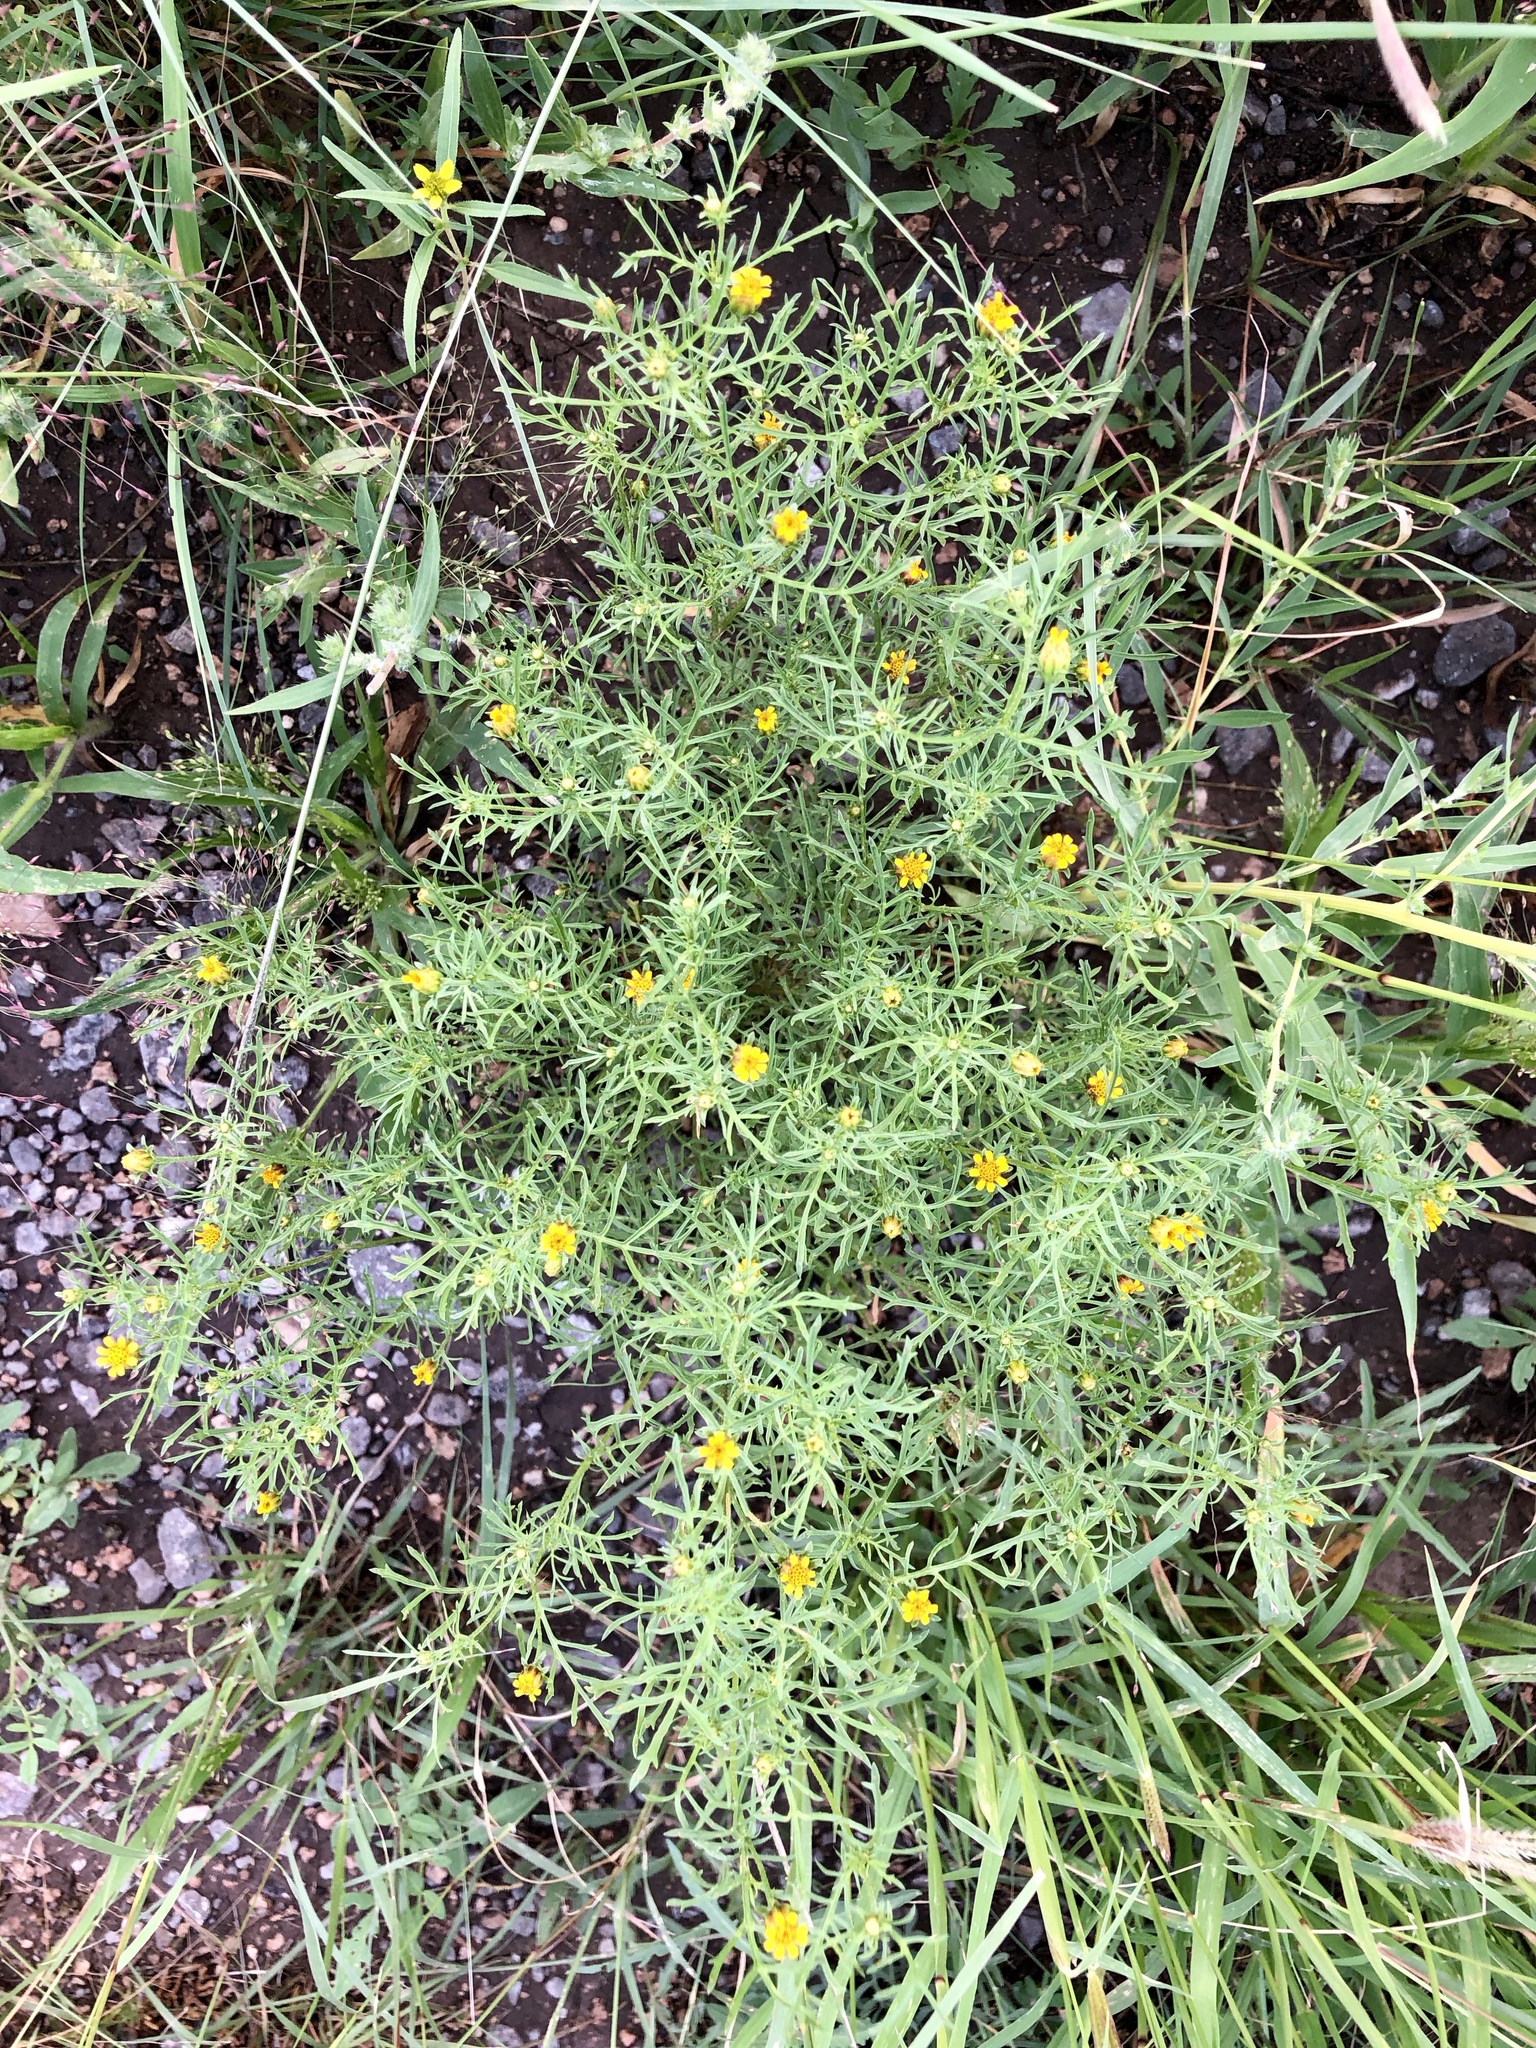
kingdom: Plantae
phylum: Tracheophyta
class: Magnoliopsida
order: Asterales
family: Asteraceae
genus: Dyssodia
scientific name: Dyssodia papposa
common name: Dogweed
